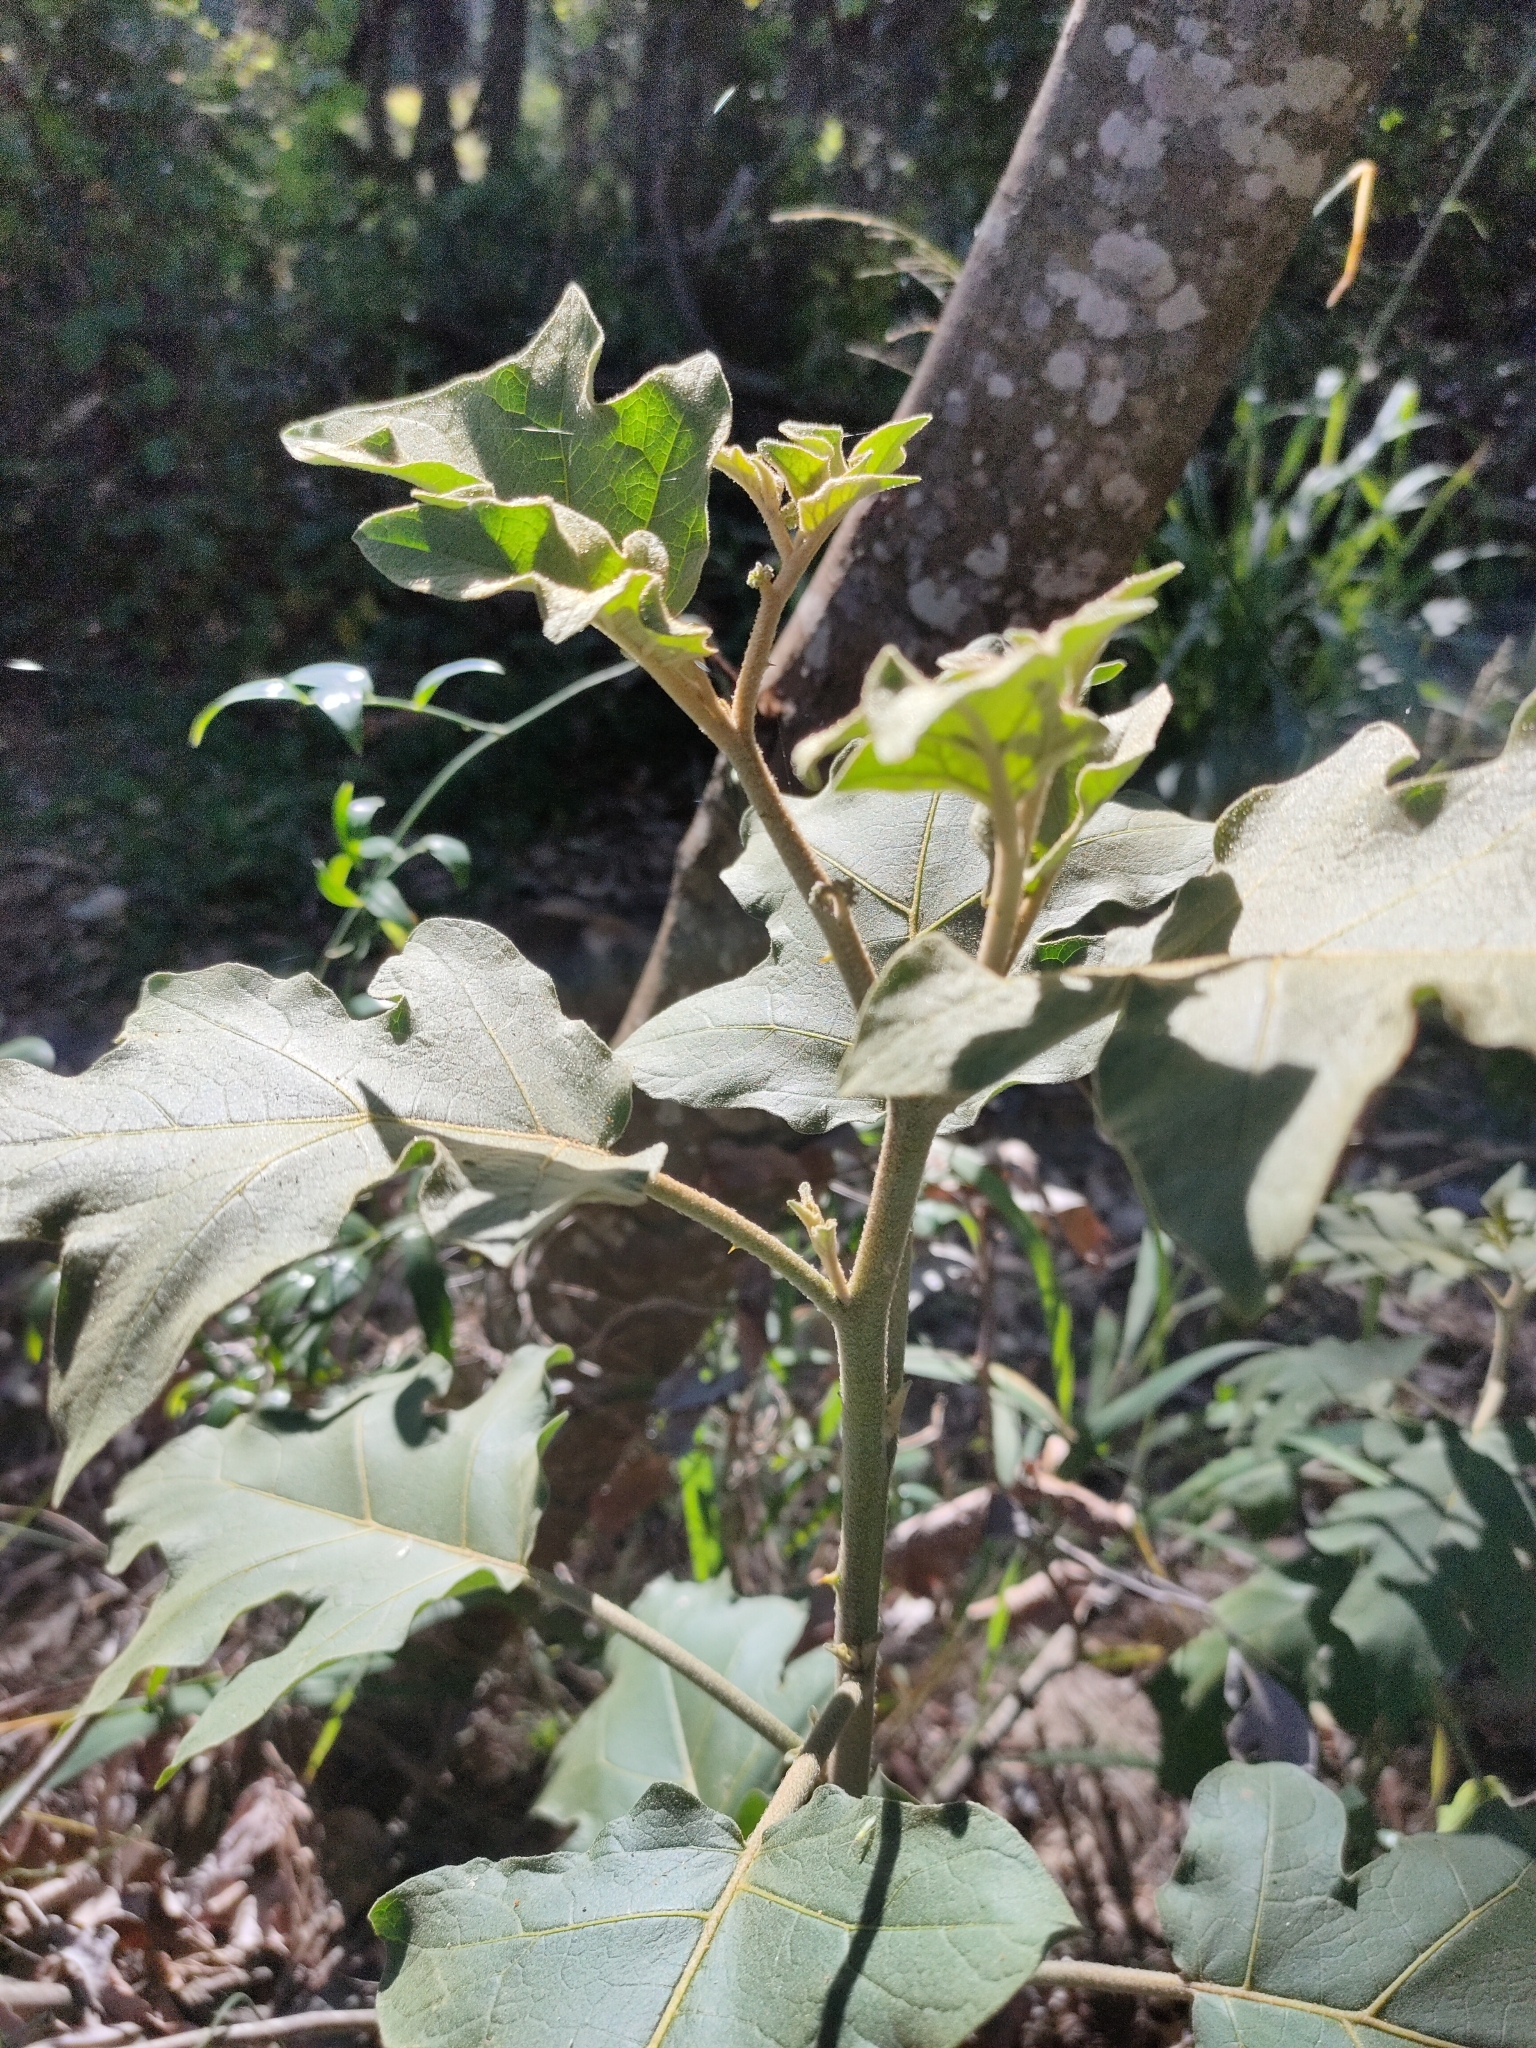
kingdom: Plantae
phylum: Tracheophyta
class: Magnoliopsida
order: Solanales
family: Solanaceae
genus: Solanum
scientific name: Solanum torvum
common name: Turkey berry
